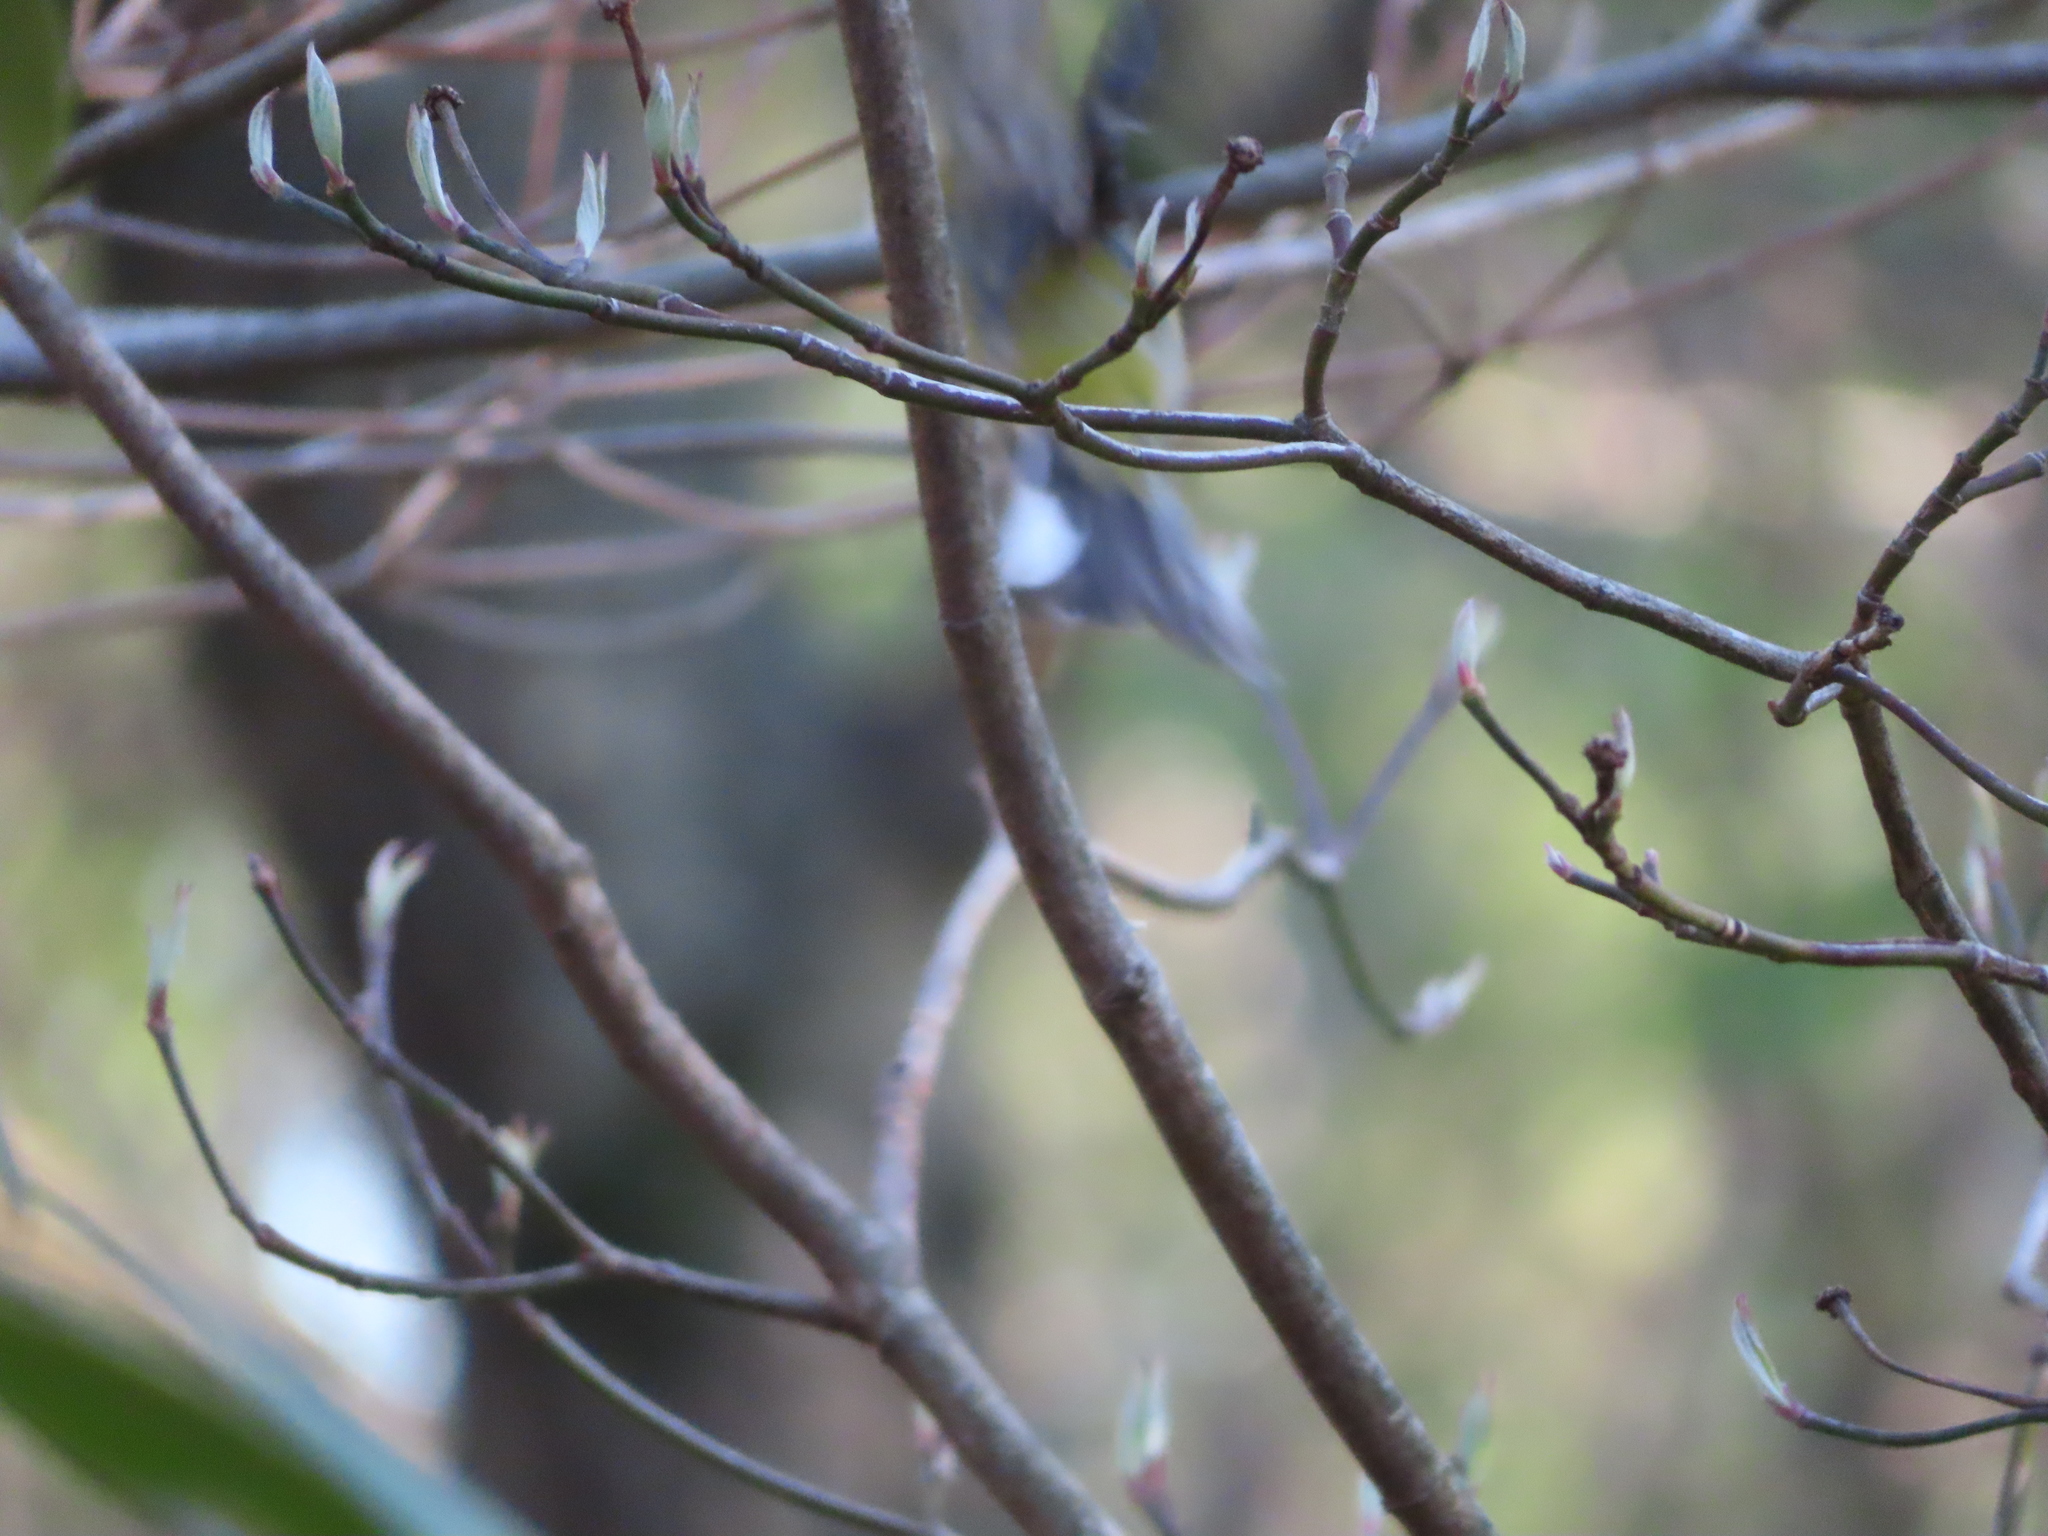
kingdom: Animalia
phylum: Chordata
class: Aves
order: Passeriformes
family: Fringillidae
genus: Spinus
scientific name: Spinus tristis
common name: American goldfinch
